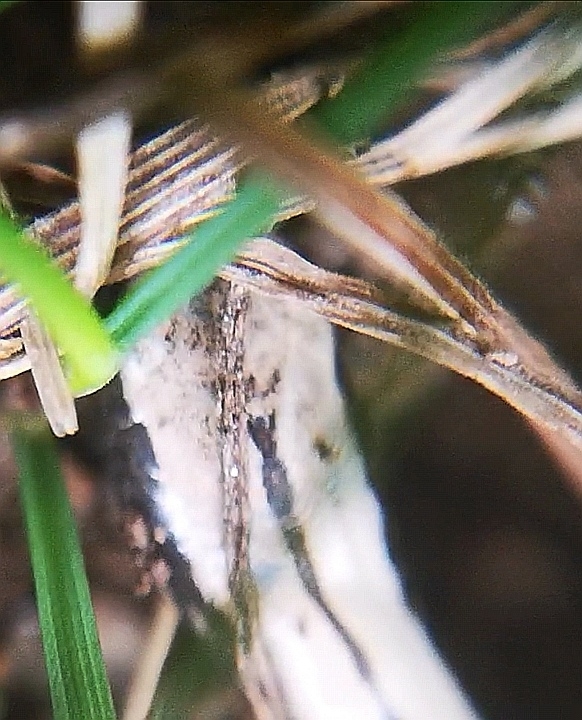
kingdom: Animalia
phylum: Chordata
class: Squamata
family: Anguidae
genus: Anguis
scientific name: Anguis fragilis
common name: Slow worm
